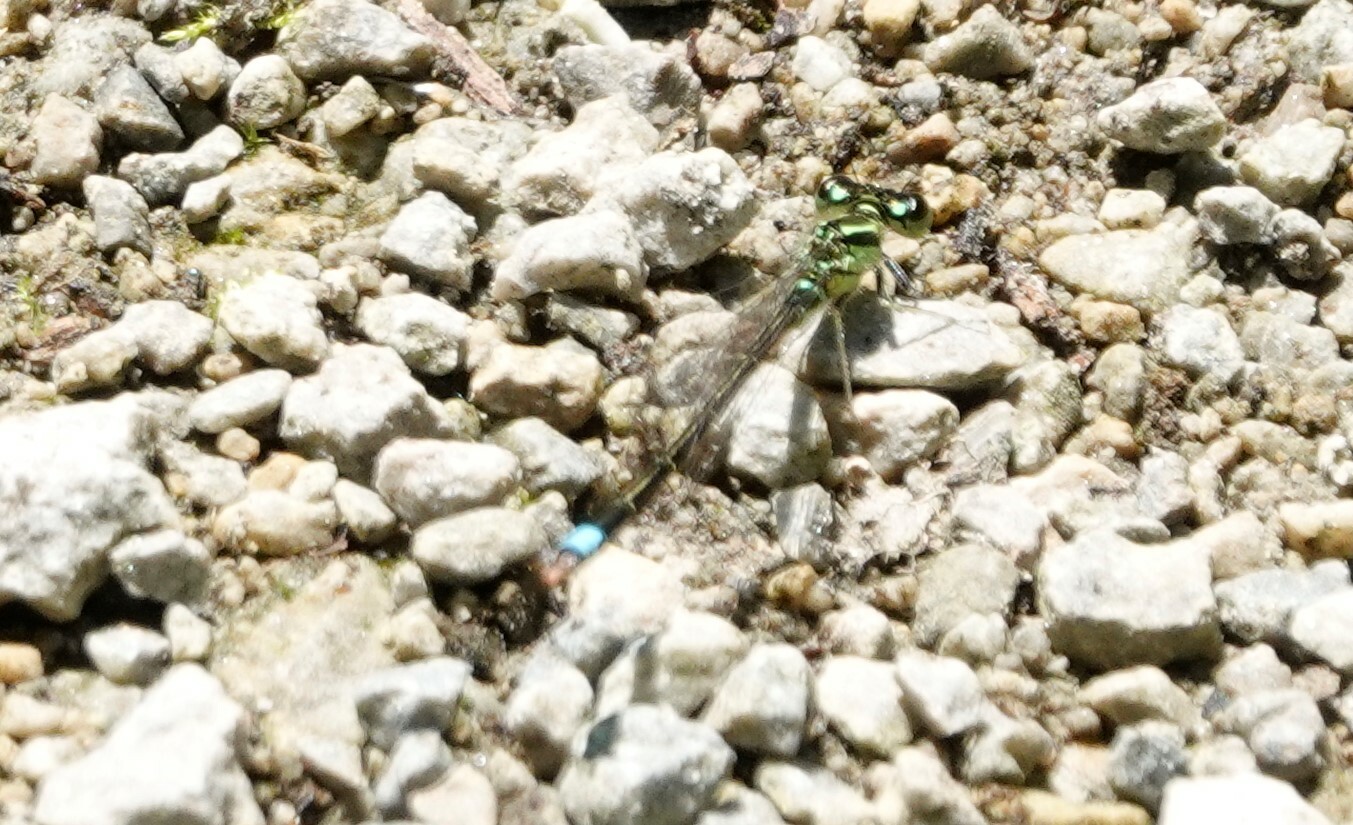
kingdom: Animalia
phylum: Arthropoda
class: Insecta
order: Odonata
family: Coenagrionidae
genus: Ischnura
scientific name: Ischnura verticalis
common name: Eastern forktail
